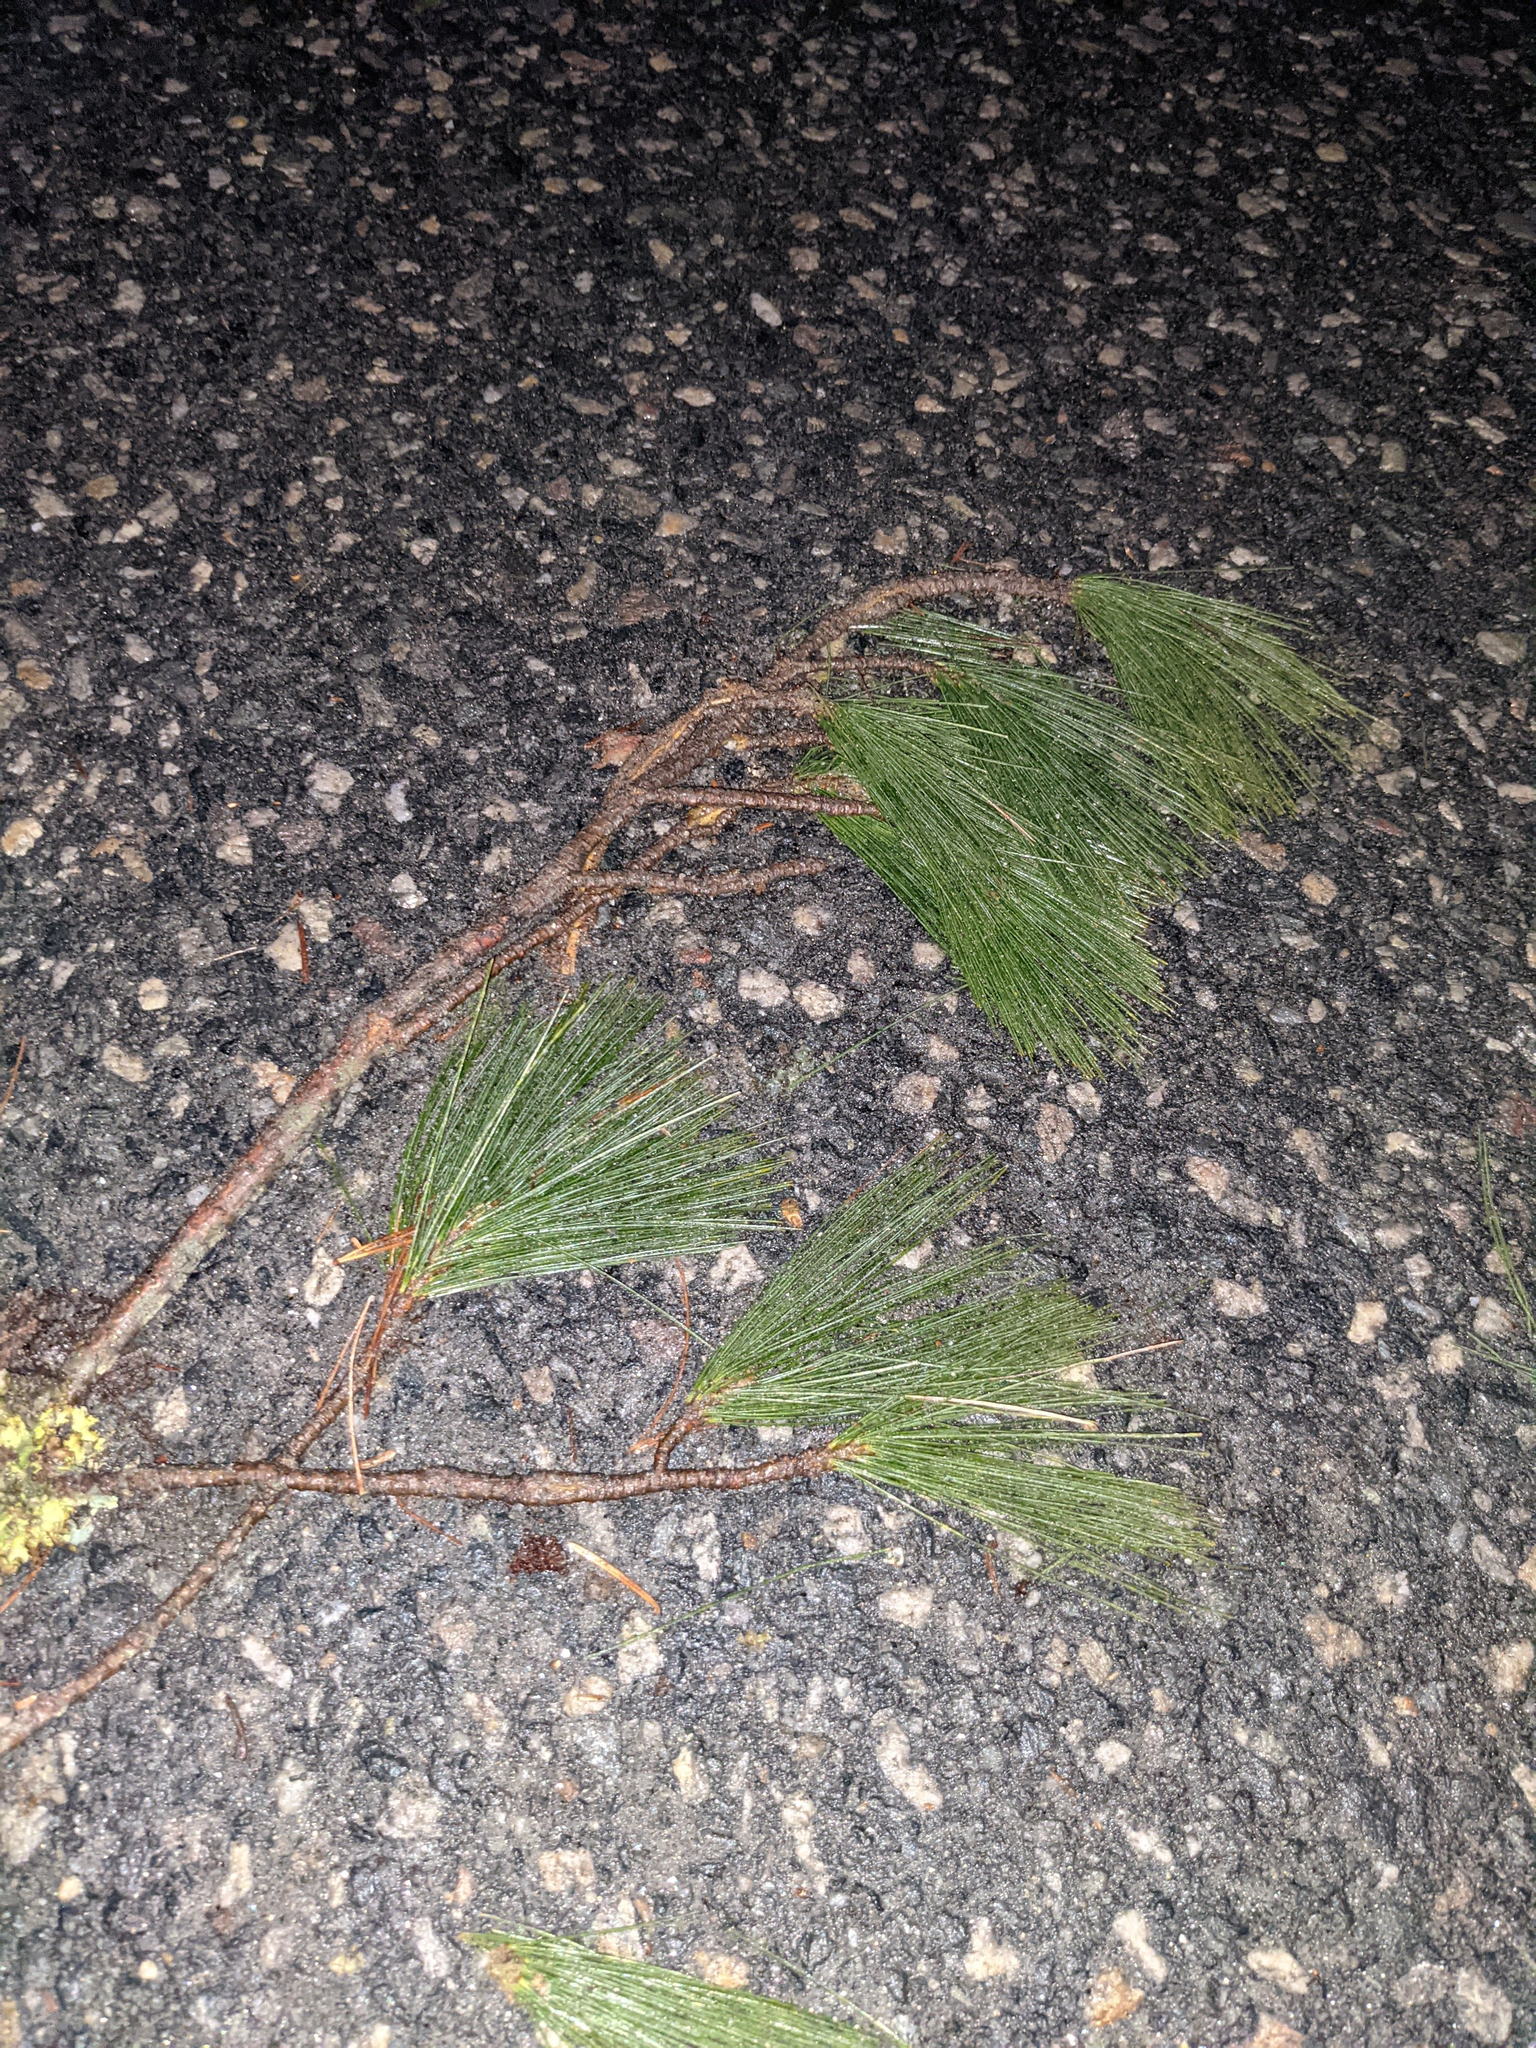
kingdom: Plantae
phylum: Tracheophyta
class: Pinopsida
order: Pinales
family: Pinaceae
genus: Pinus
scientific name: Pinus strobus
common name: Weymouth pine
